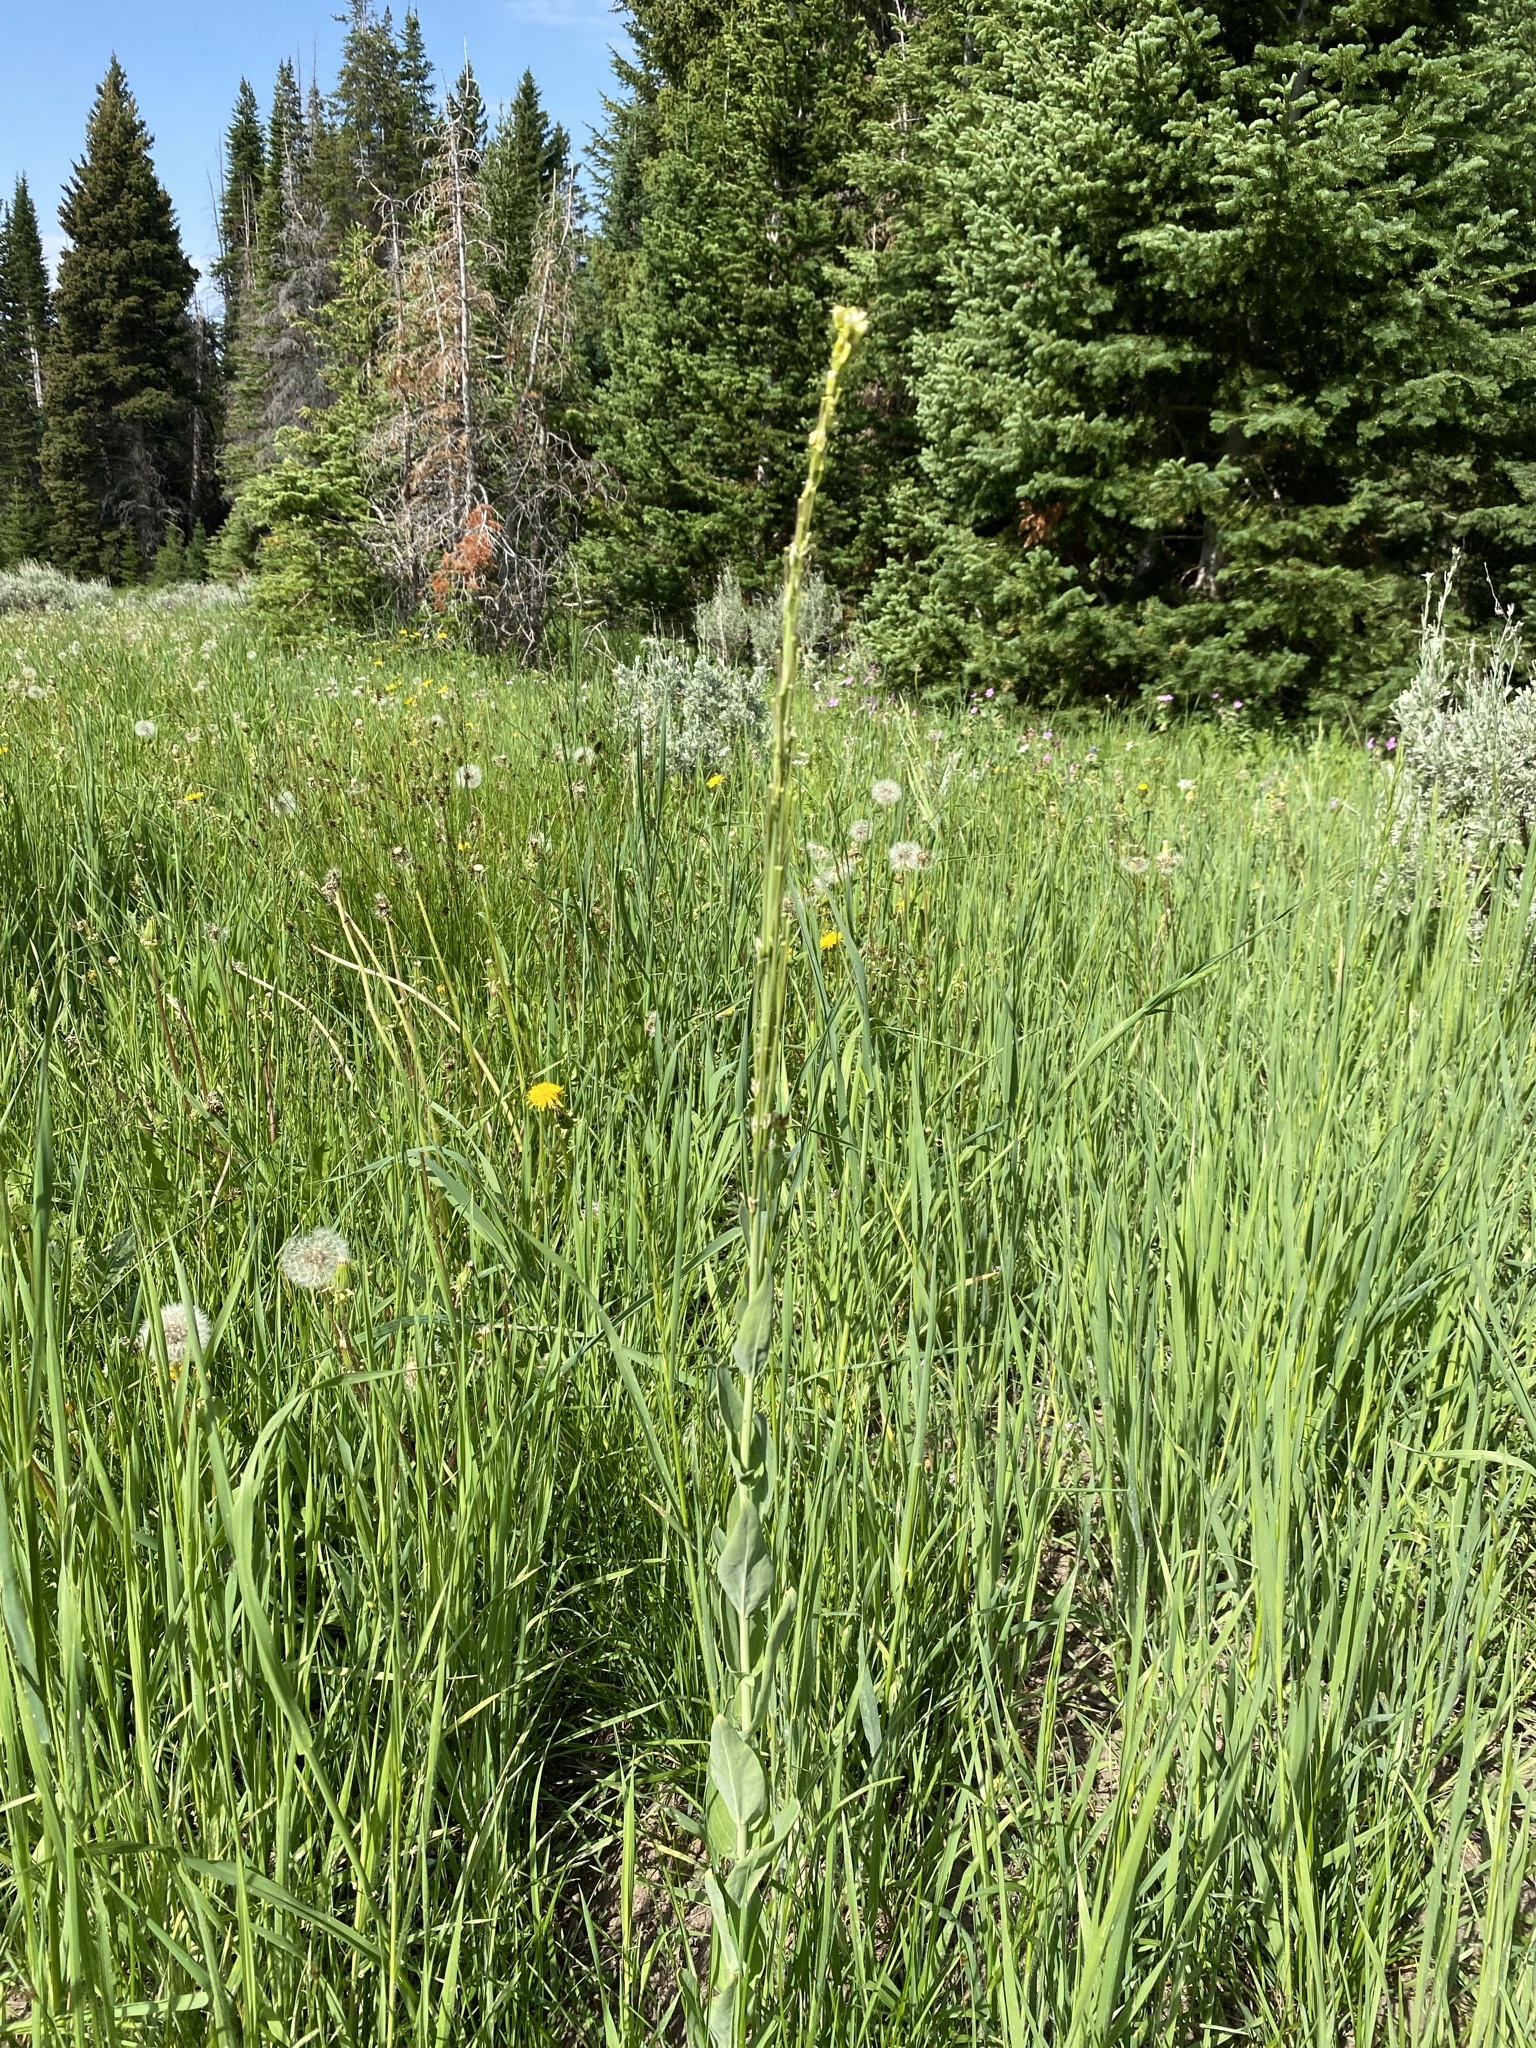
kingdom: Plantae
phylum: Tracheophyta
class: Magnoliopsida
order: Brassicales
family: Brassicaceae
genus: Turritis
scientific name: Turritis glabra
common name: Tower rockcress
